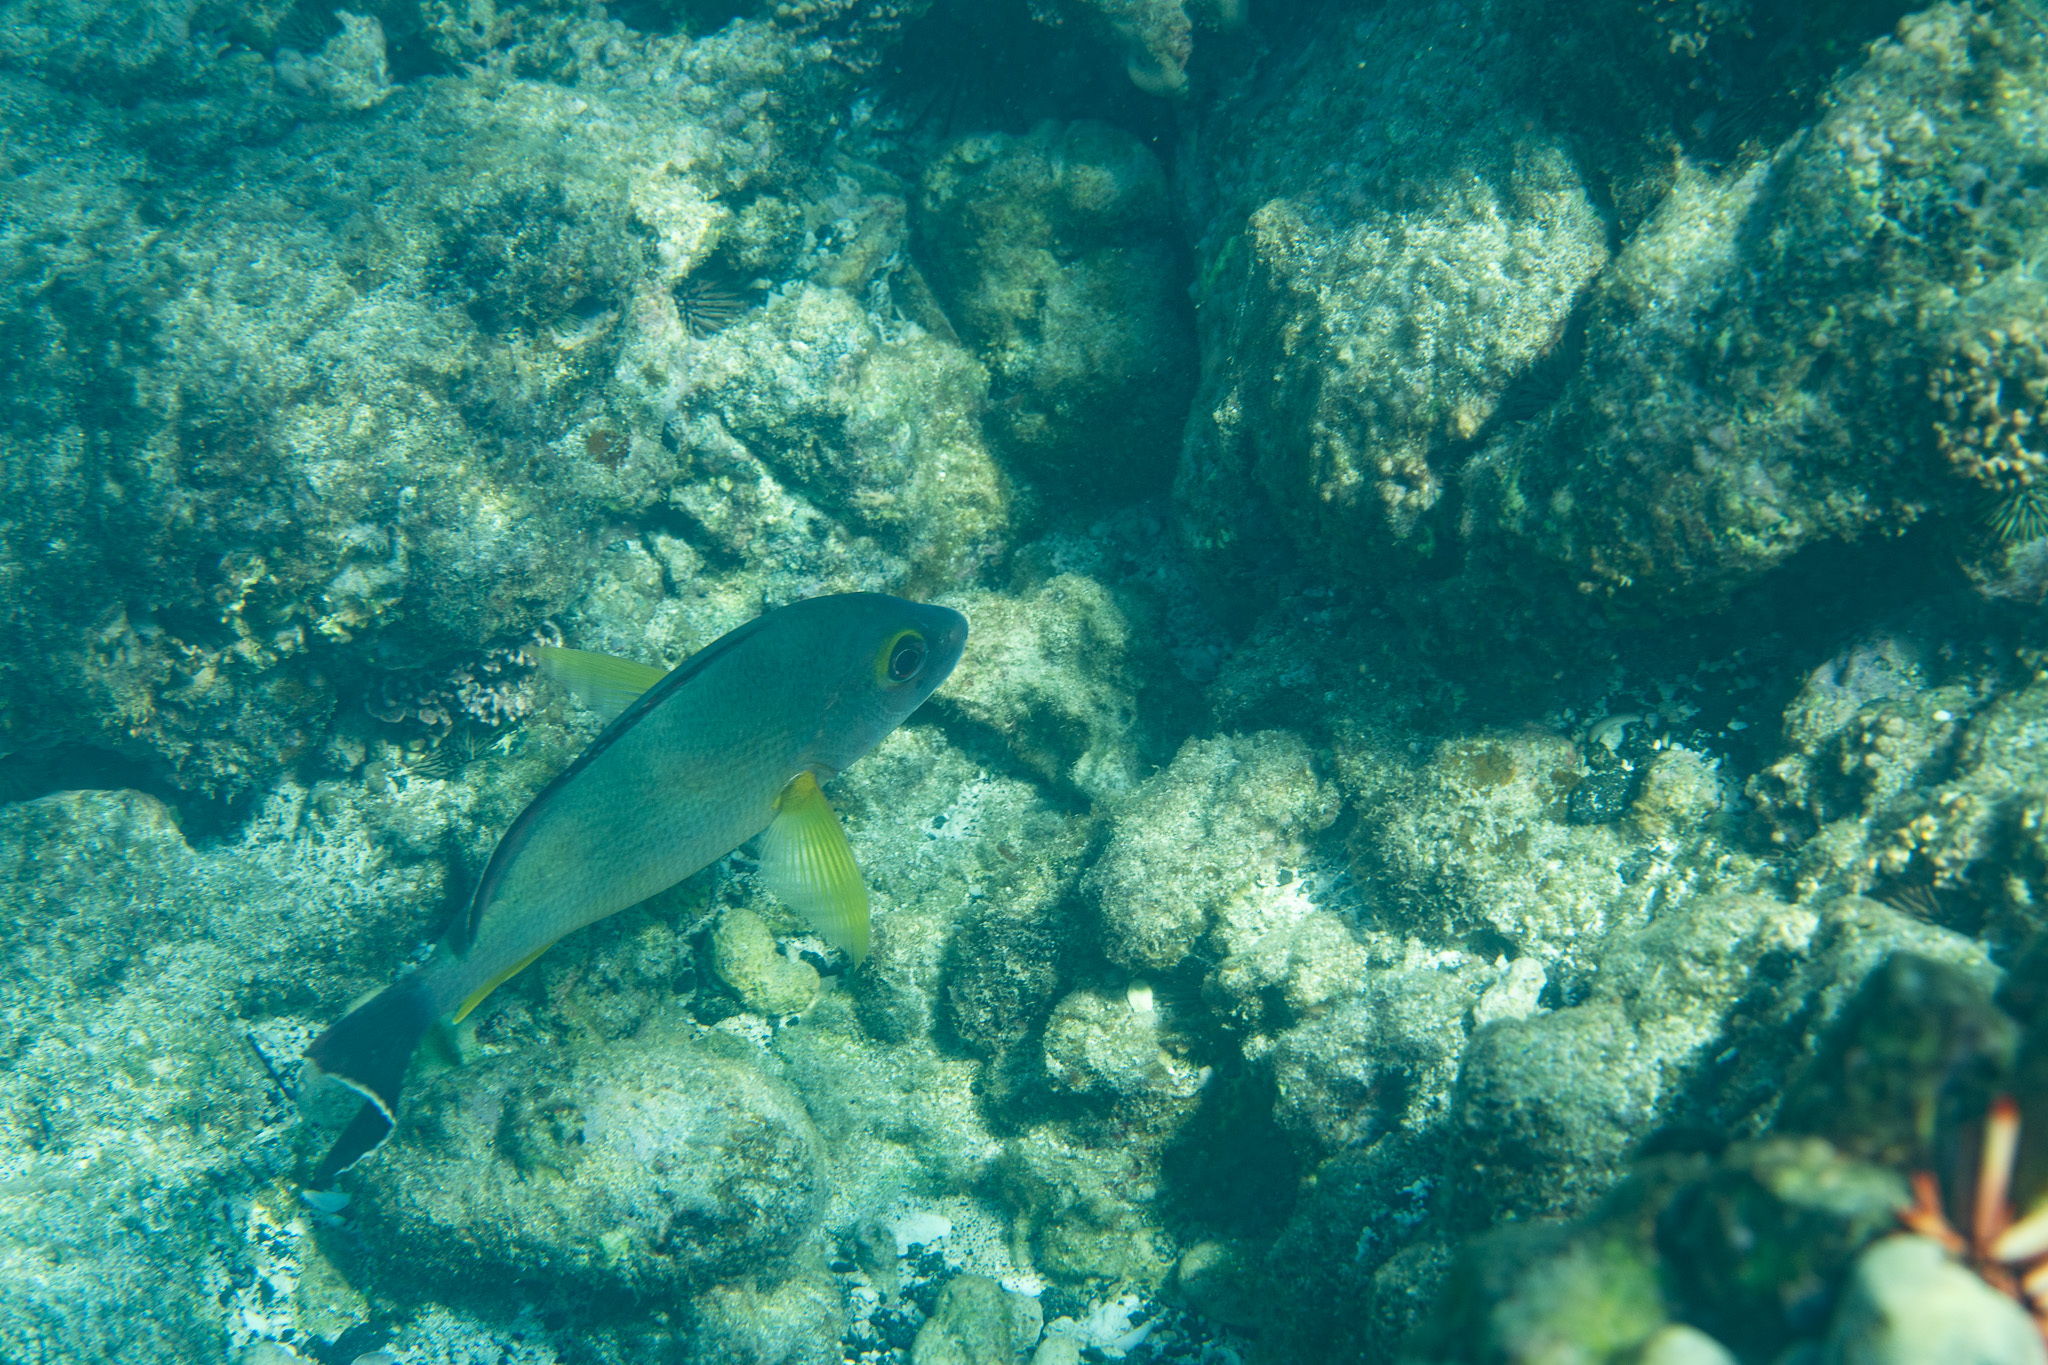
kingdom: Animalia
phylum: Chordata
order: Perciformes
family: Lutjanidae
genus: Lutjanus
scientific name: Lutjanus fulvus
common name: Blacktail snapper
